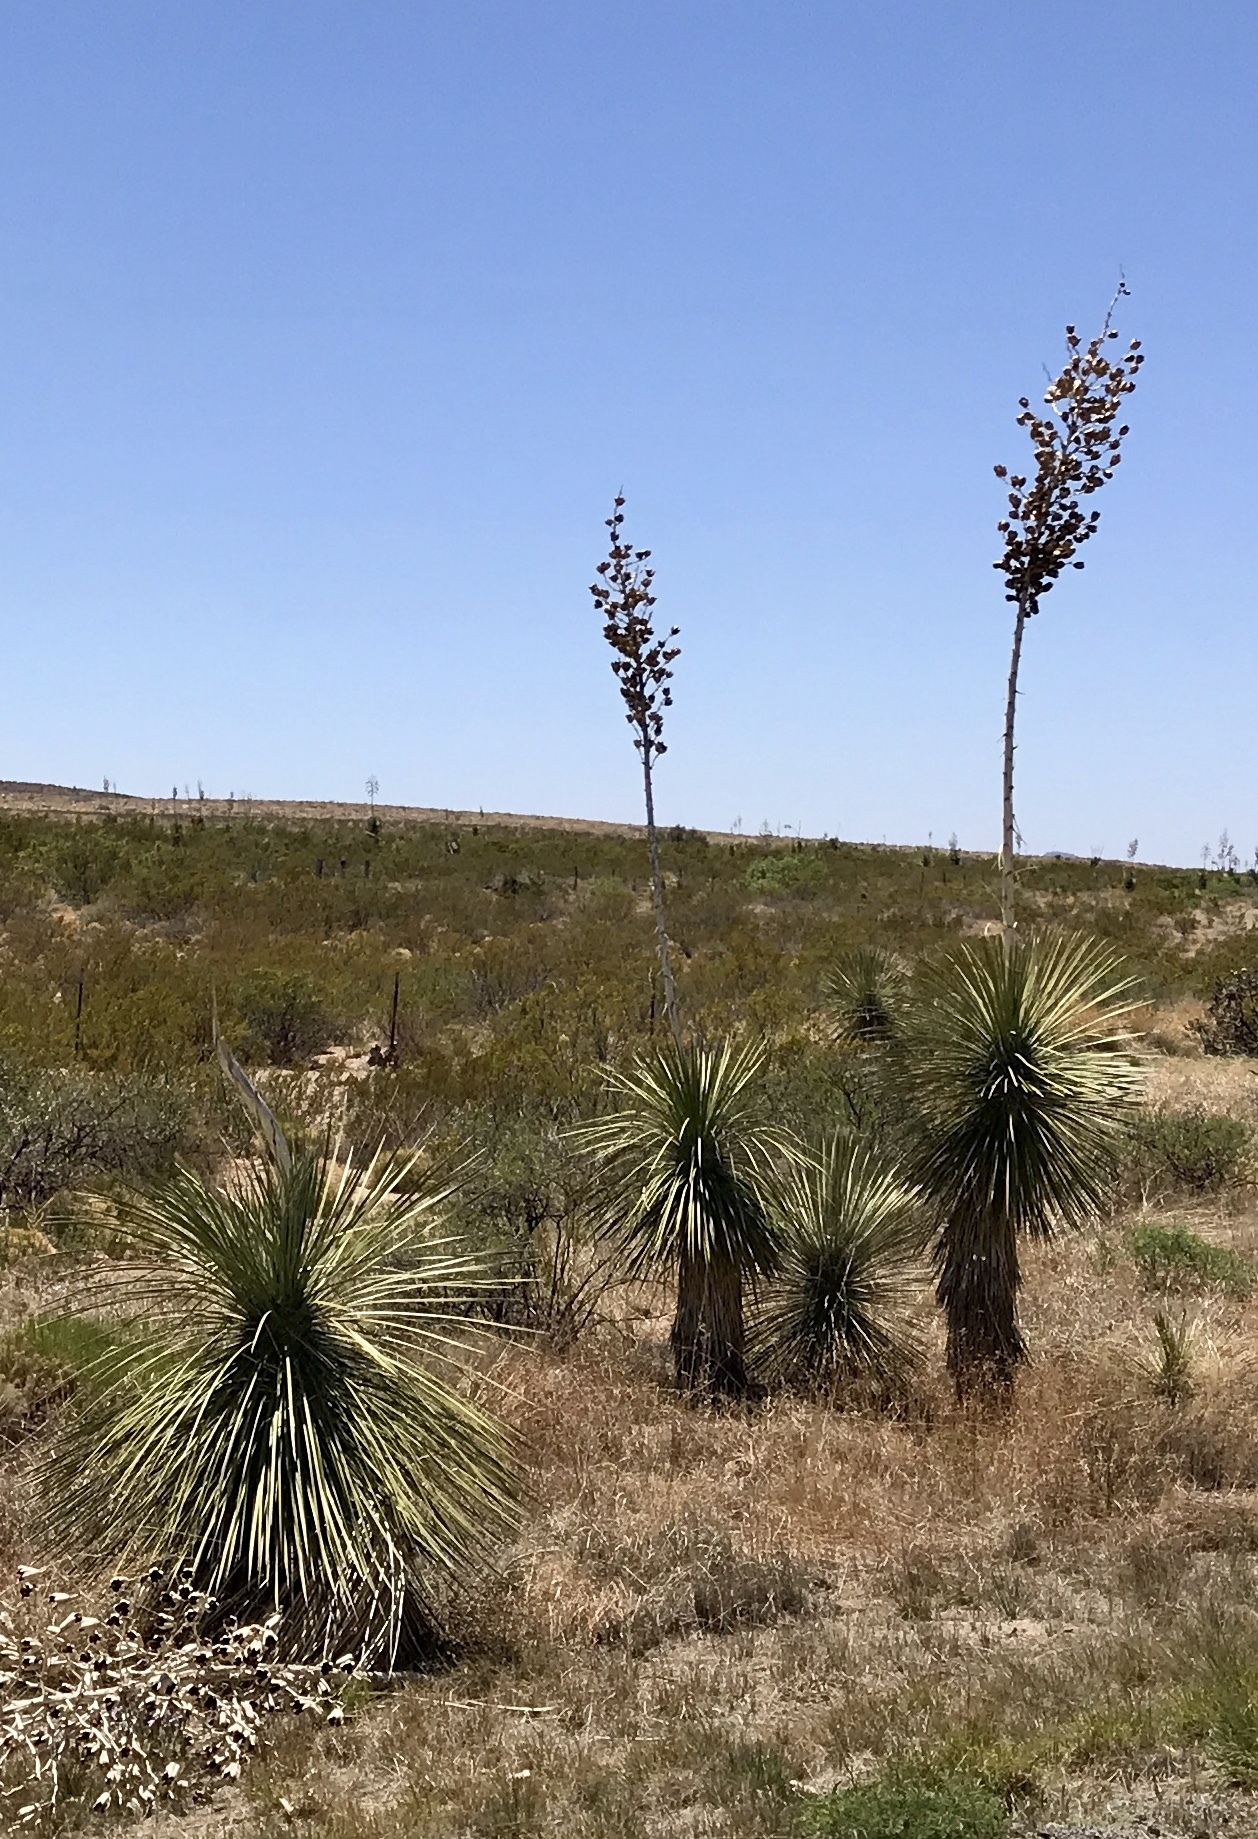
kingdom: Plantae
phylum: Tracheophyta
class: Liliopsida
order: Asparagales
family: Asparagaceae
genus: Yucca
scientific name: Yucca elata
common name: Palmella
